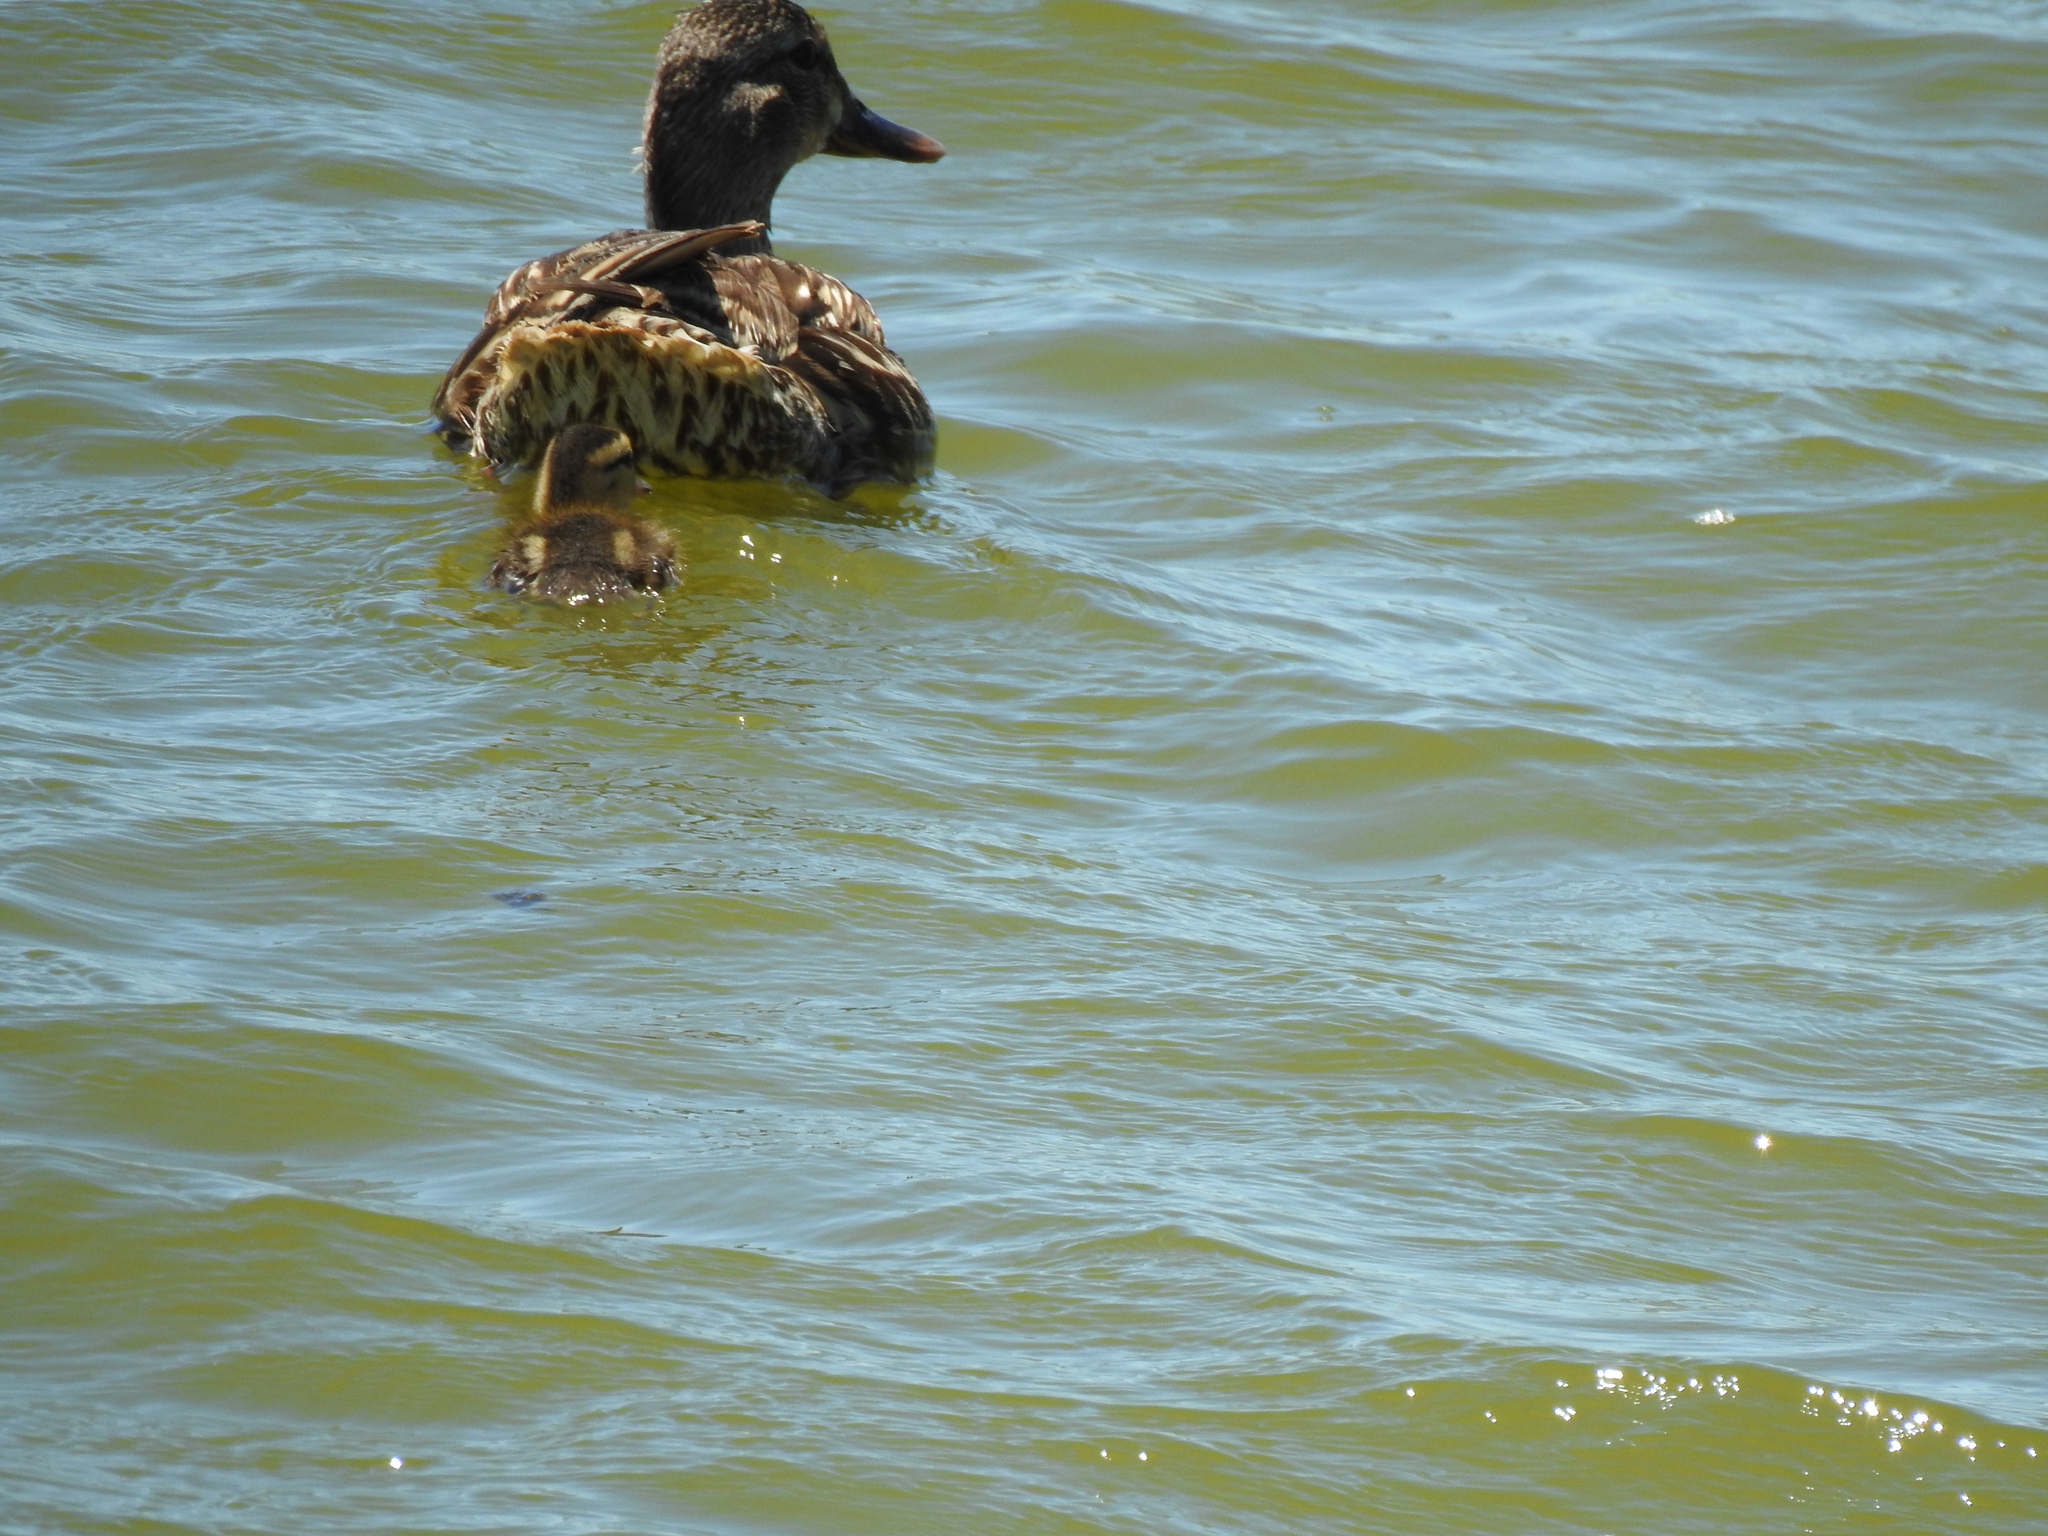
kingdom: Animalia
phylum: Chordata
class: Aves
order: Anseriformes
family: Anatidae
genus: Anas
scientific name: Anas platyrhynchos
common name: Mallard
